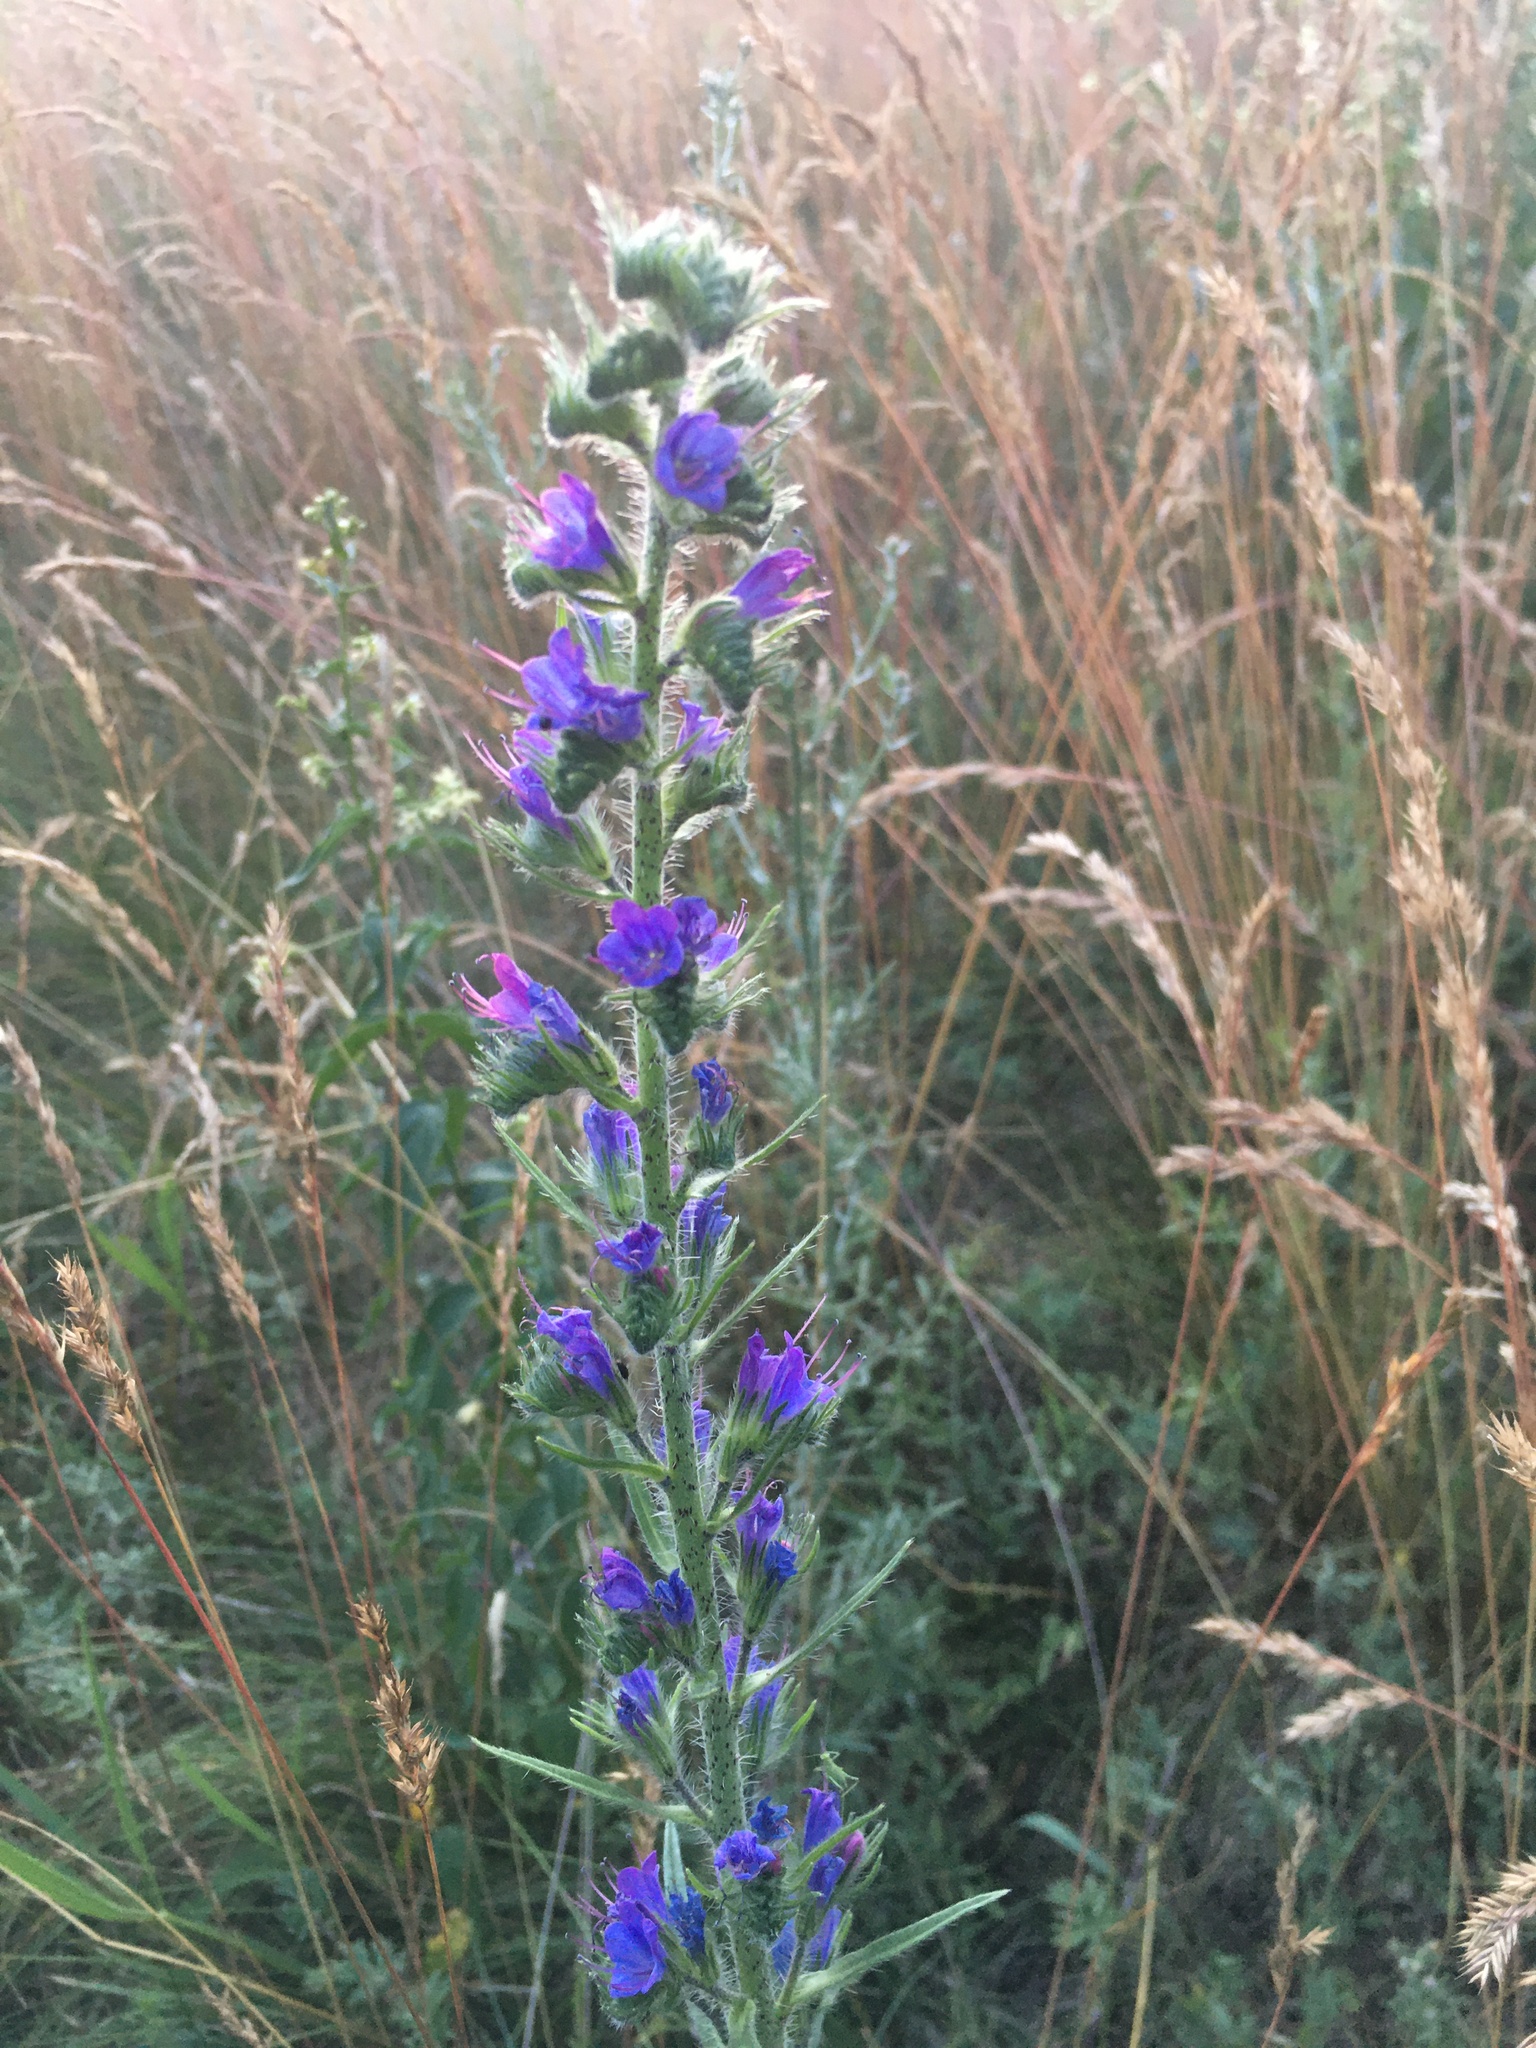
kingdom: Plantae
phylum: Tracheophyta
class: Magnoliopsida
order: Boraginales
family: Boraginaceae
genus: Echium
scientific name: Echium vulgare
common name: Common viper's bugloss
